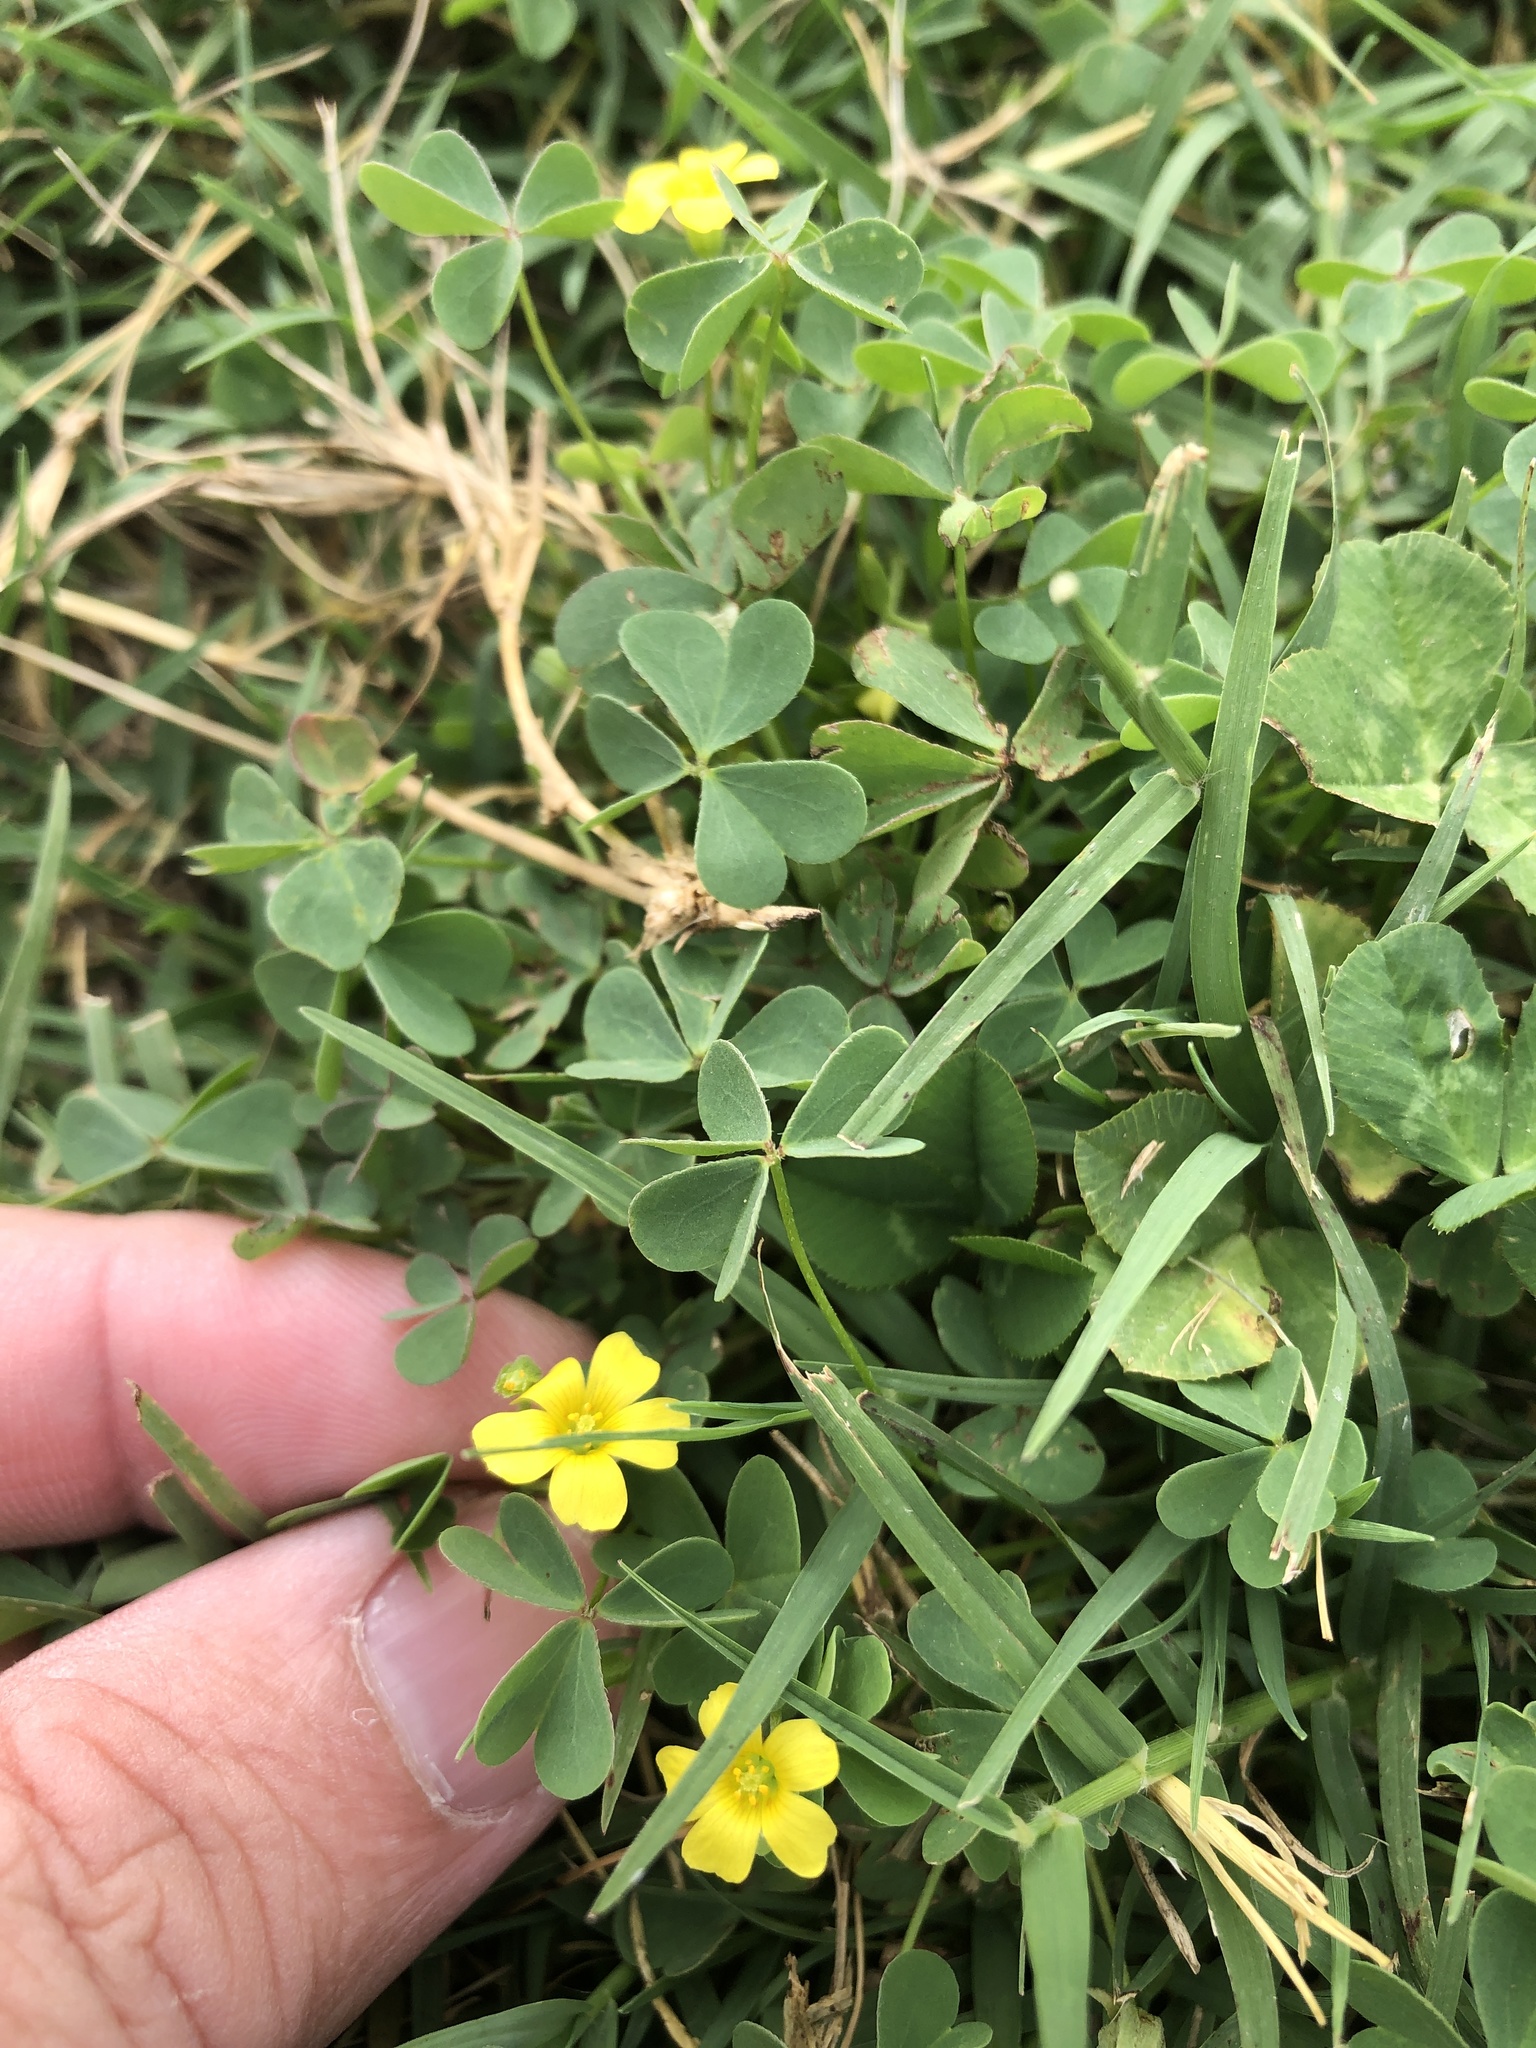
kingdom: Plantae
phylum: Tracheophyta
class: Magnoliopsida
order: Oxalidales
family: Oxalidaceae
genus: Oxalis
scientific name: Oxalis dillenii
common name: Sussex yellow-sorrel
